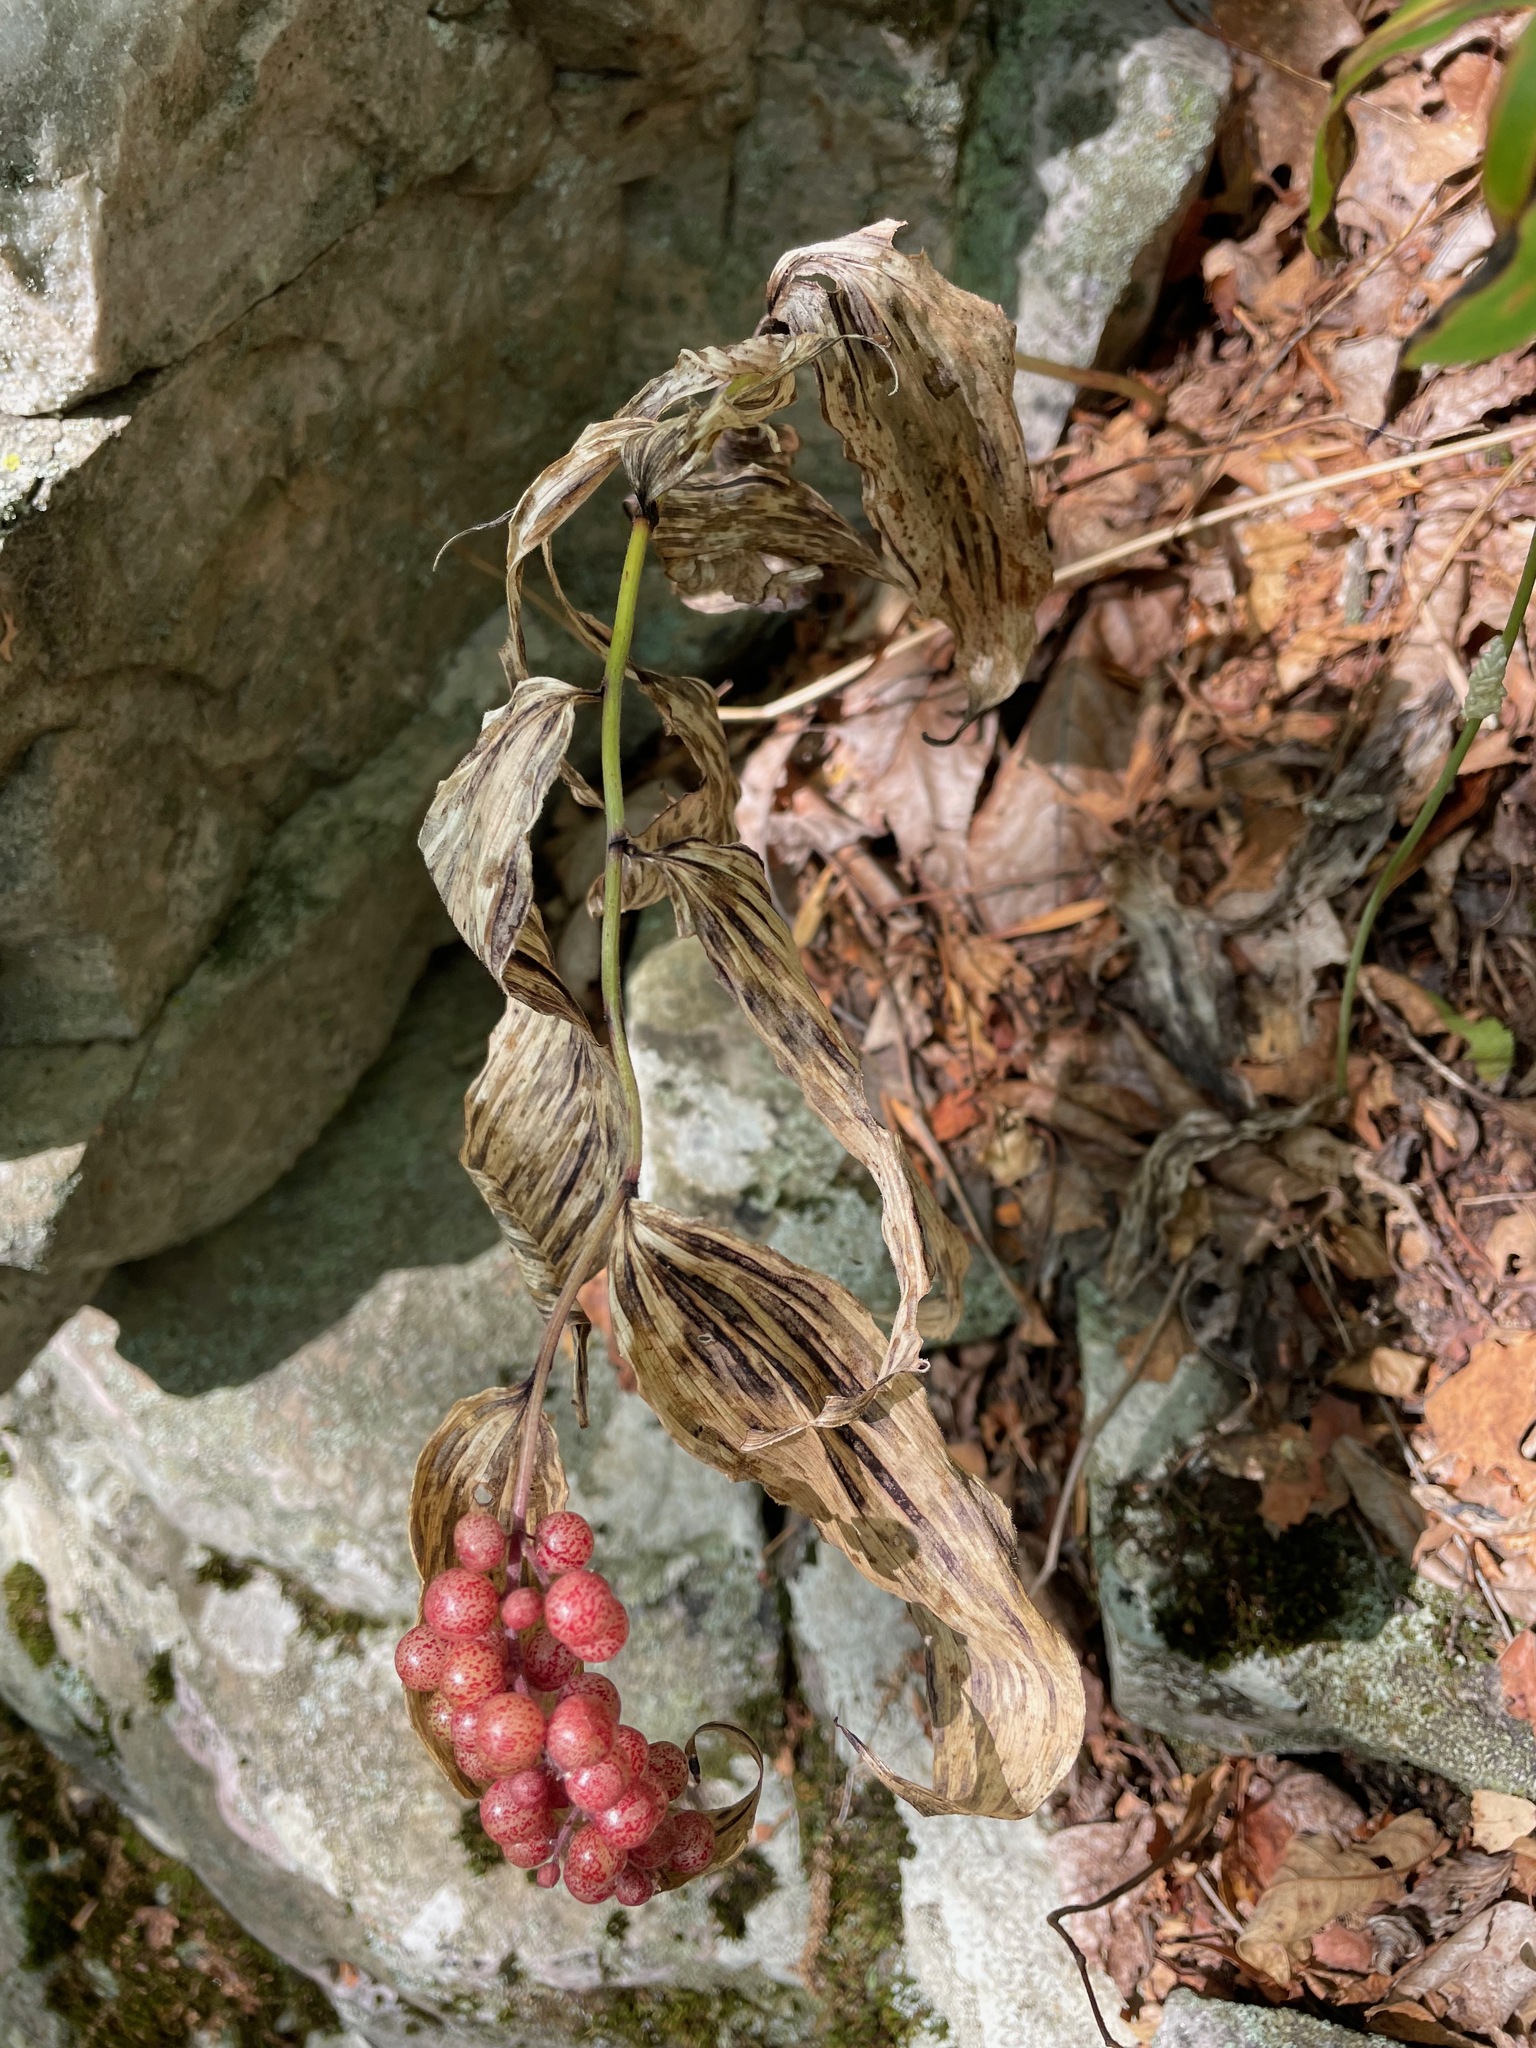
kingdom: Plantae
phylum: Tracheophyta
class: Liliopsida
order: Asparagales
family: Asparagaceae
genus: Maianthemum
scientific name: Maianthemum racemosum
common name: False spikenard
